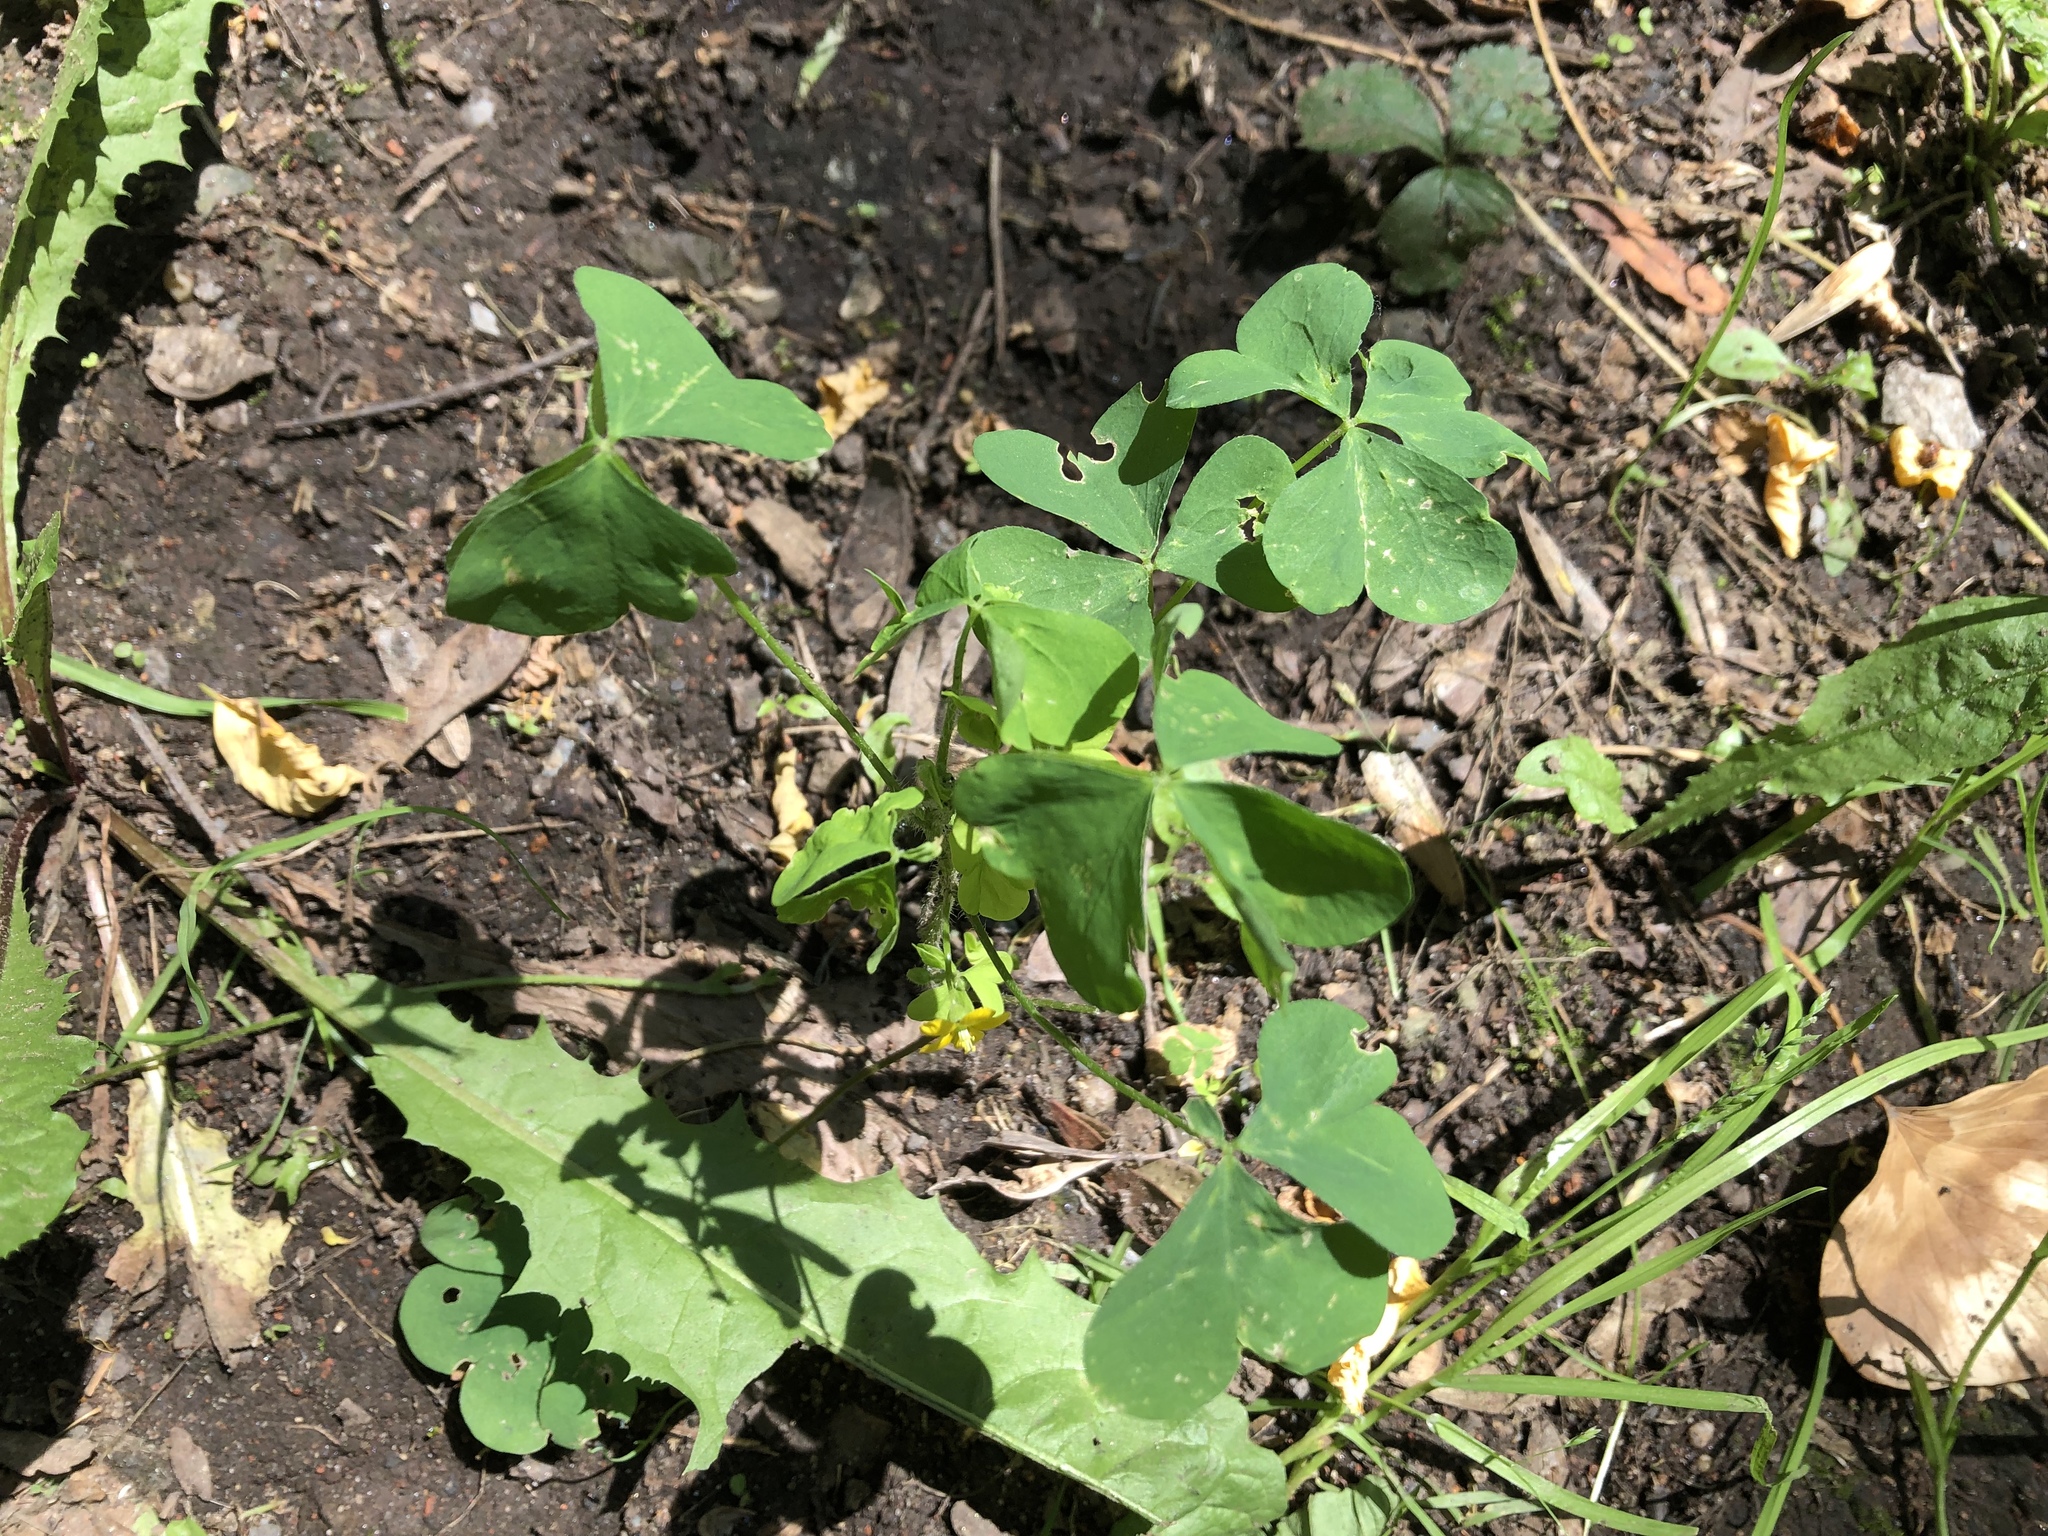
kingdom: Plantae
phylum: Tracheophyta
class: Magnoliopsida
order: Oxalidales
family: Oxalidaceae
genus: Oxalis
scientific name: Oxalis stricta
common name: Upright yellow-sorrel
